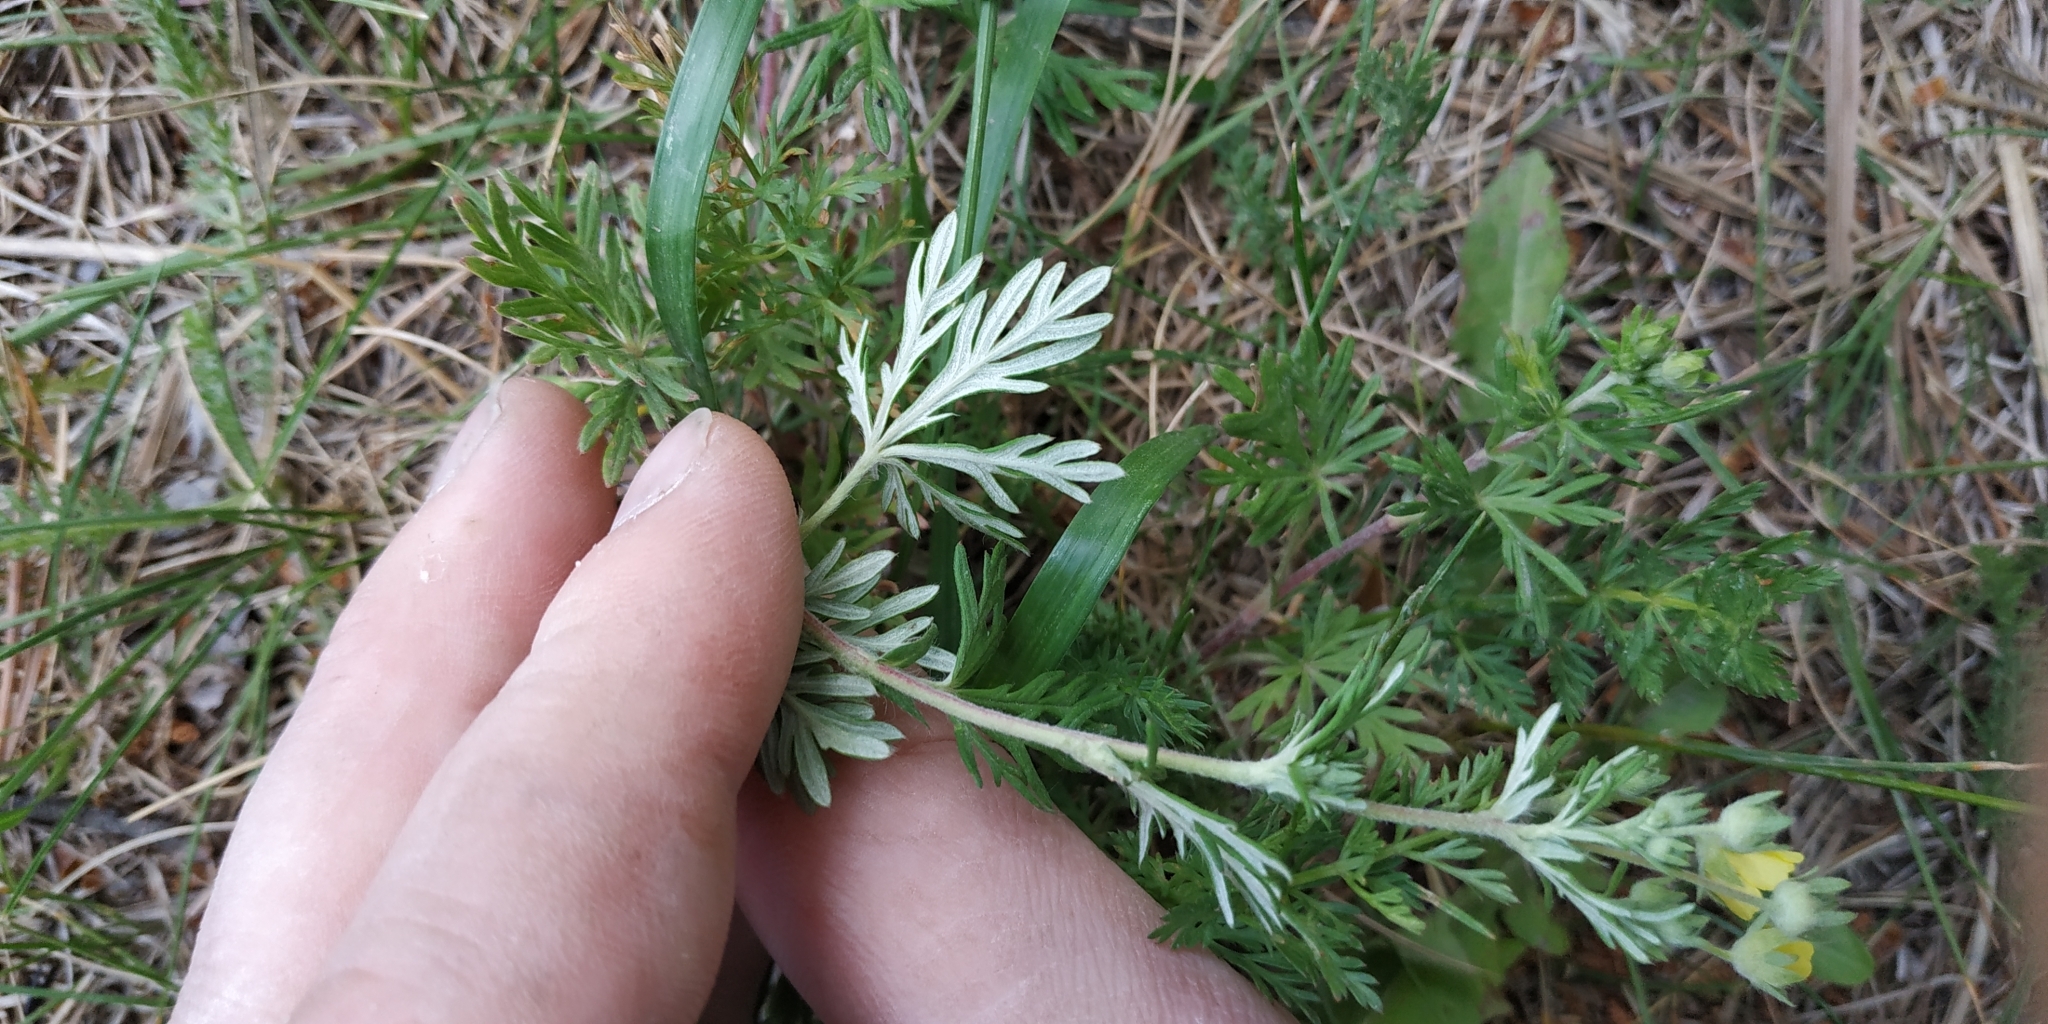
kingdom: Plantae
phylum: Tracheophyta
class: Magnoliopsida
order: Rosales
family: Rosaceae
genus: Potentilla
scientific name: Potentilla argentea
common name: Hoary cinquefoil
